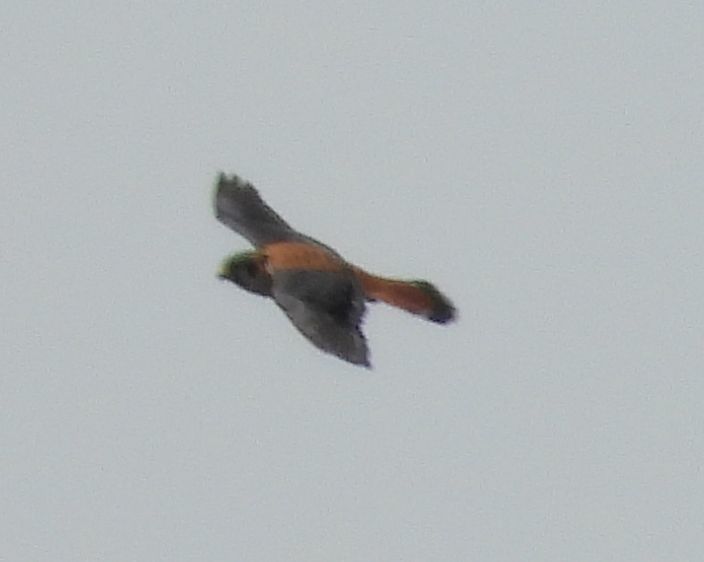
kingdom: Animalia
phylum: Chordata
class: Aves
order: Falconiformes
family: Falconidae
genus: Falco
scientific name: Falco sparverius
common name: American kestrel
